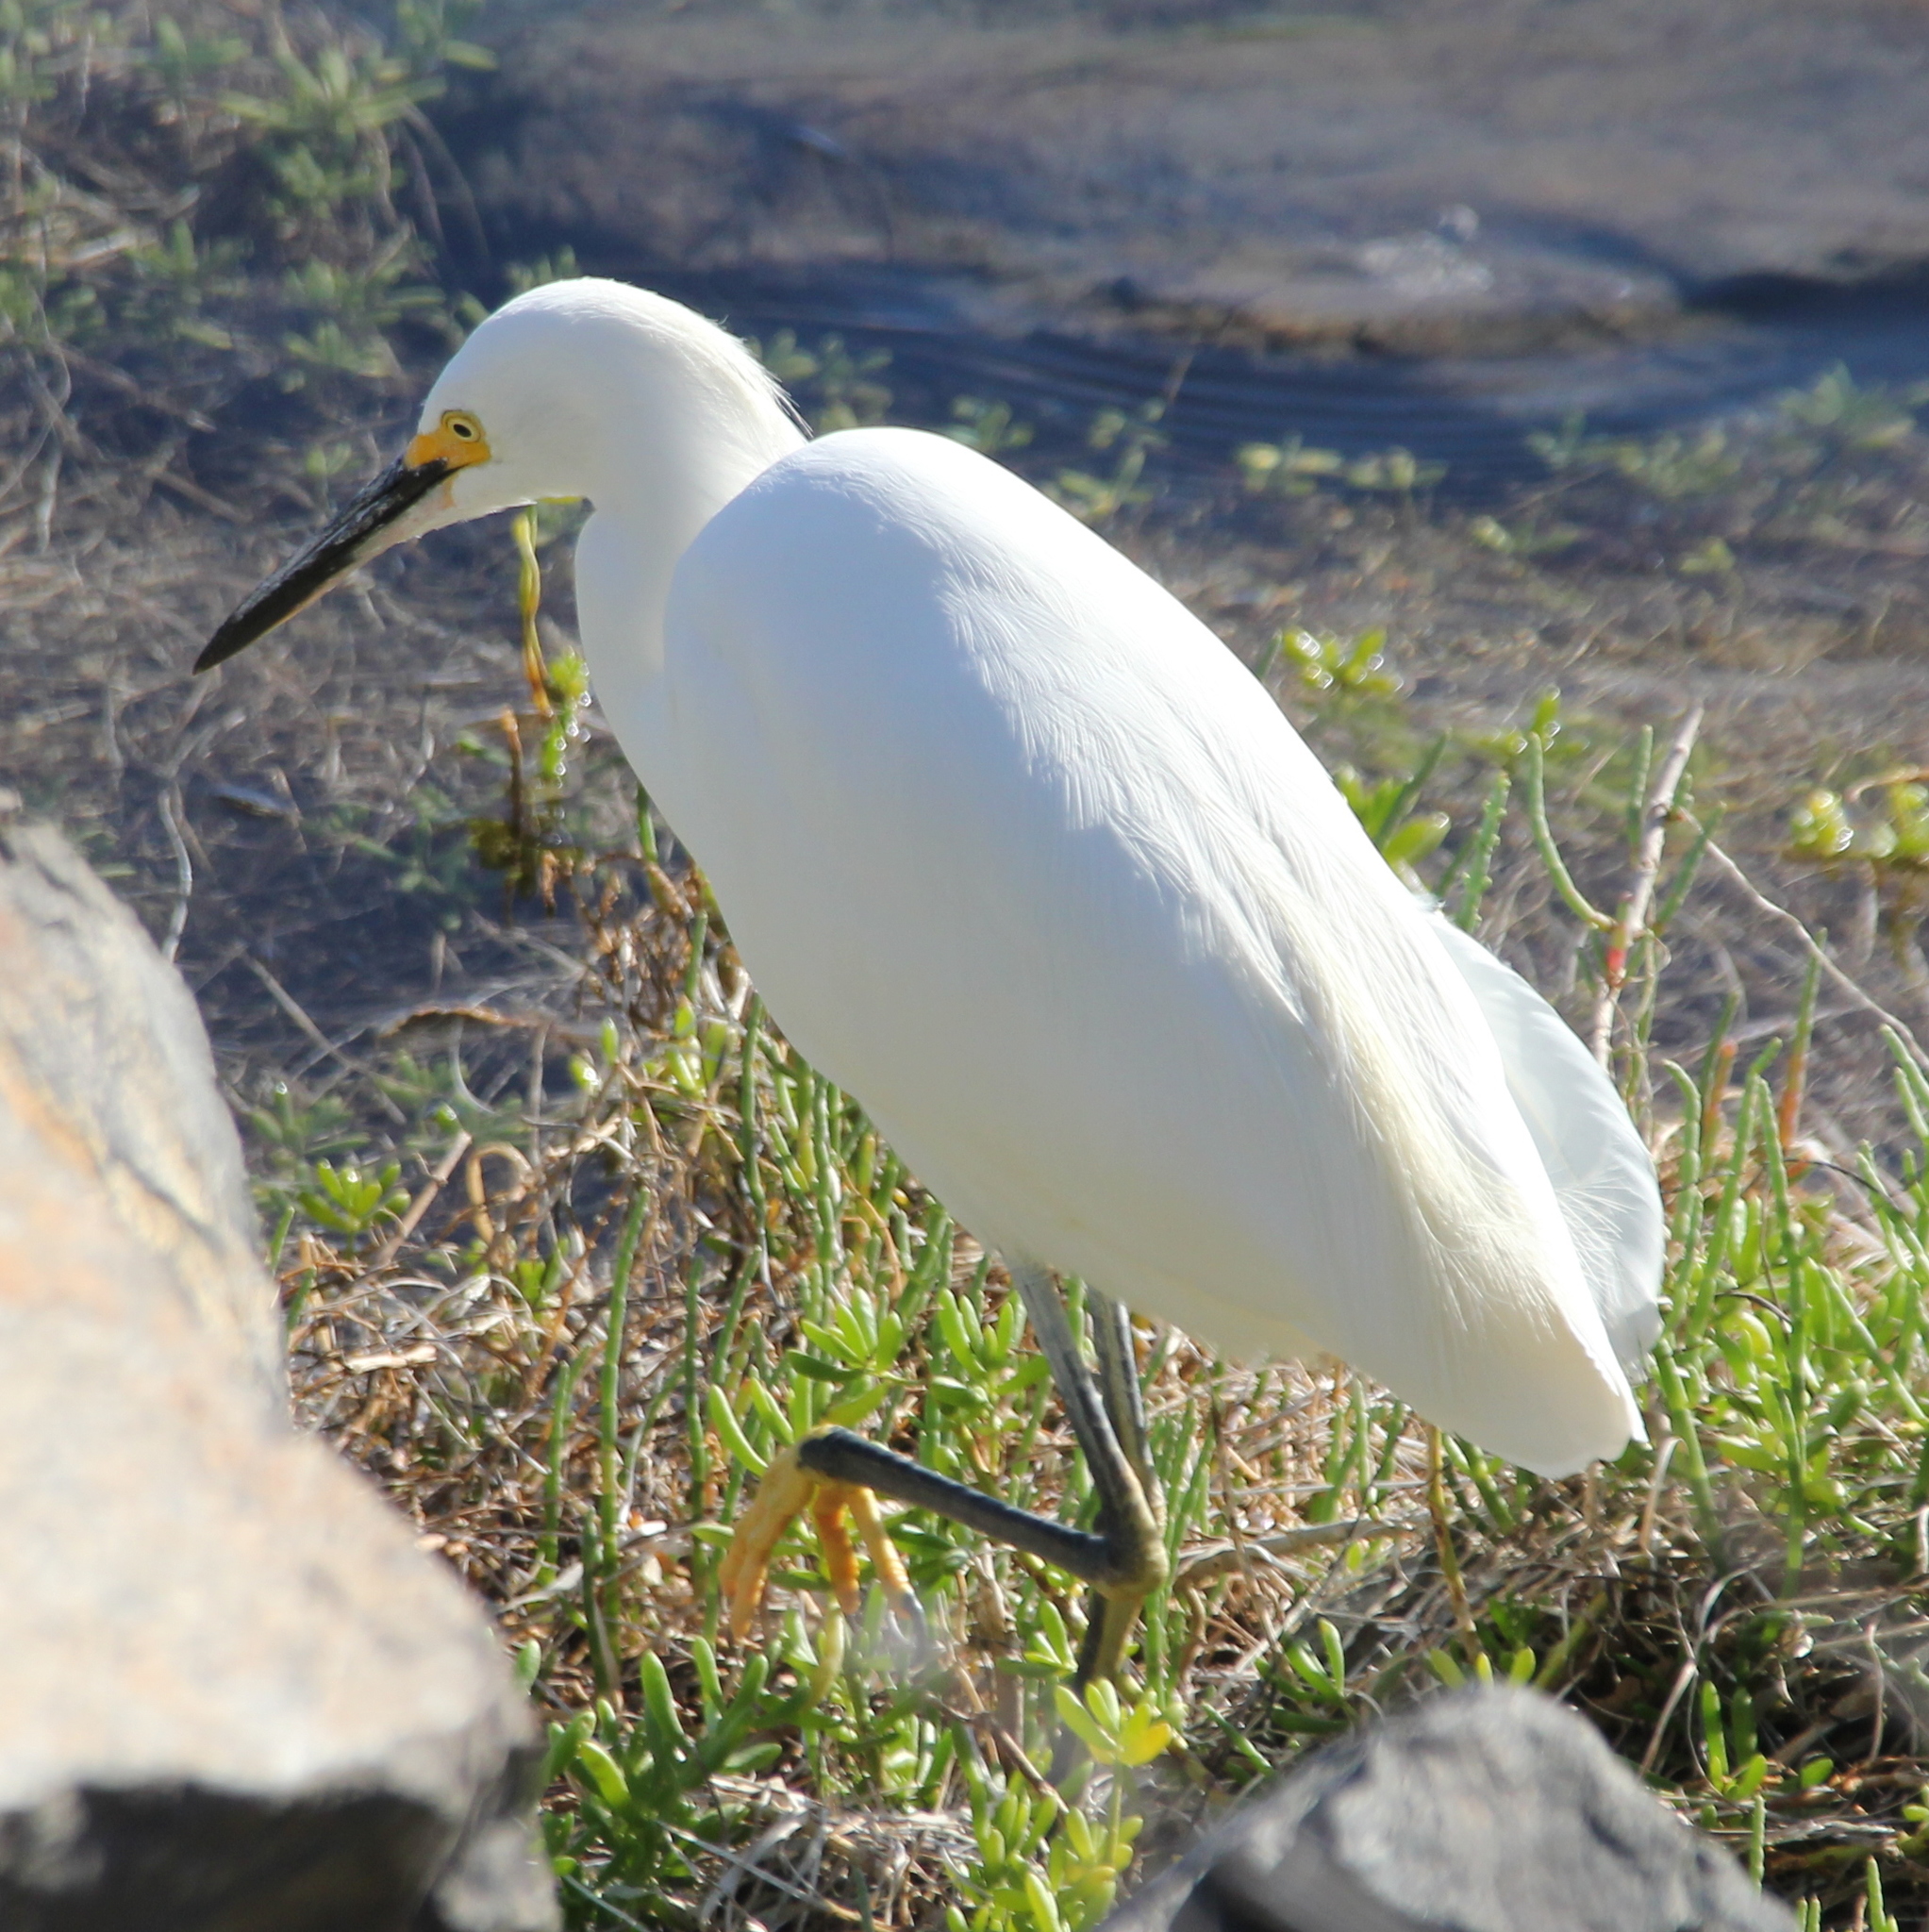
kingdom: Animalia
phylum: Chordata
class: Aves
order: Pelecaniformes
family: Ardeidae
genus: Egretta
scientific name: Egretta thula
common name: Snowy egret
